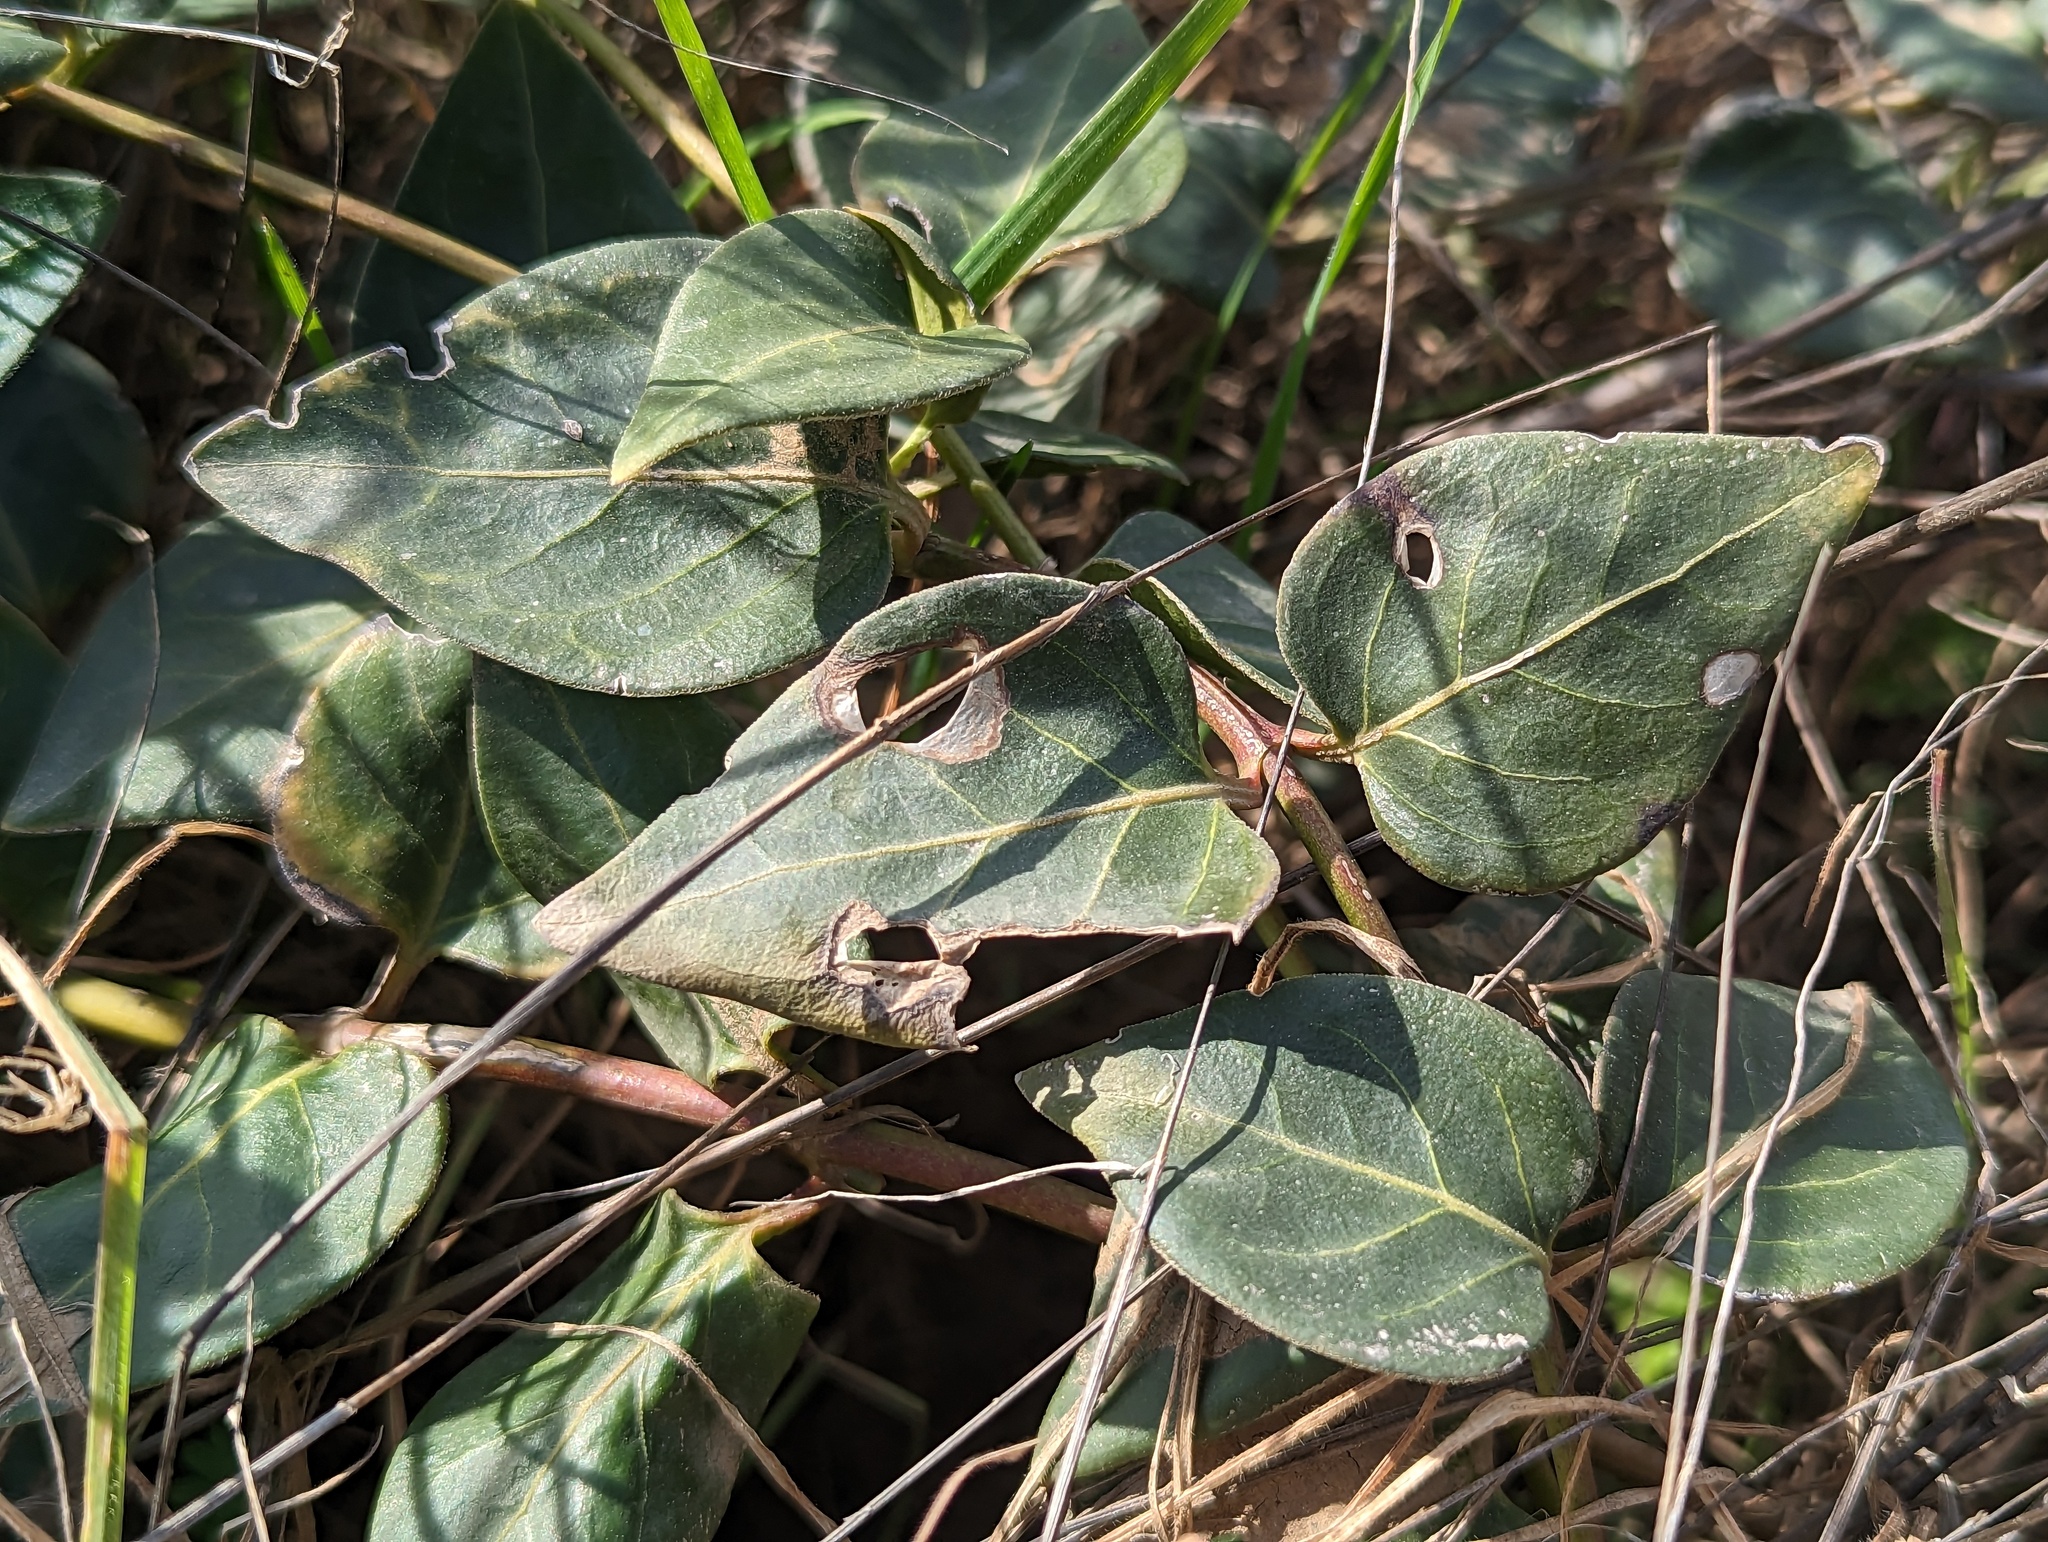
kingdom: Plantae
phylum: Tracheophyta
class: Magnoliopsida
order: Gentianales
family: Apocynaceae
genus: Vinca
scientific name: Vinca major
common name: Greater periwinkle
